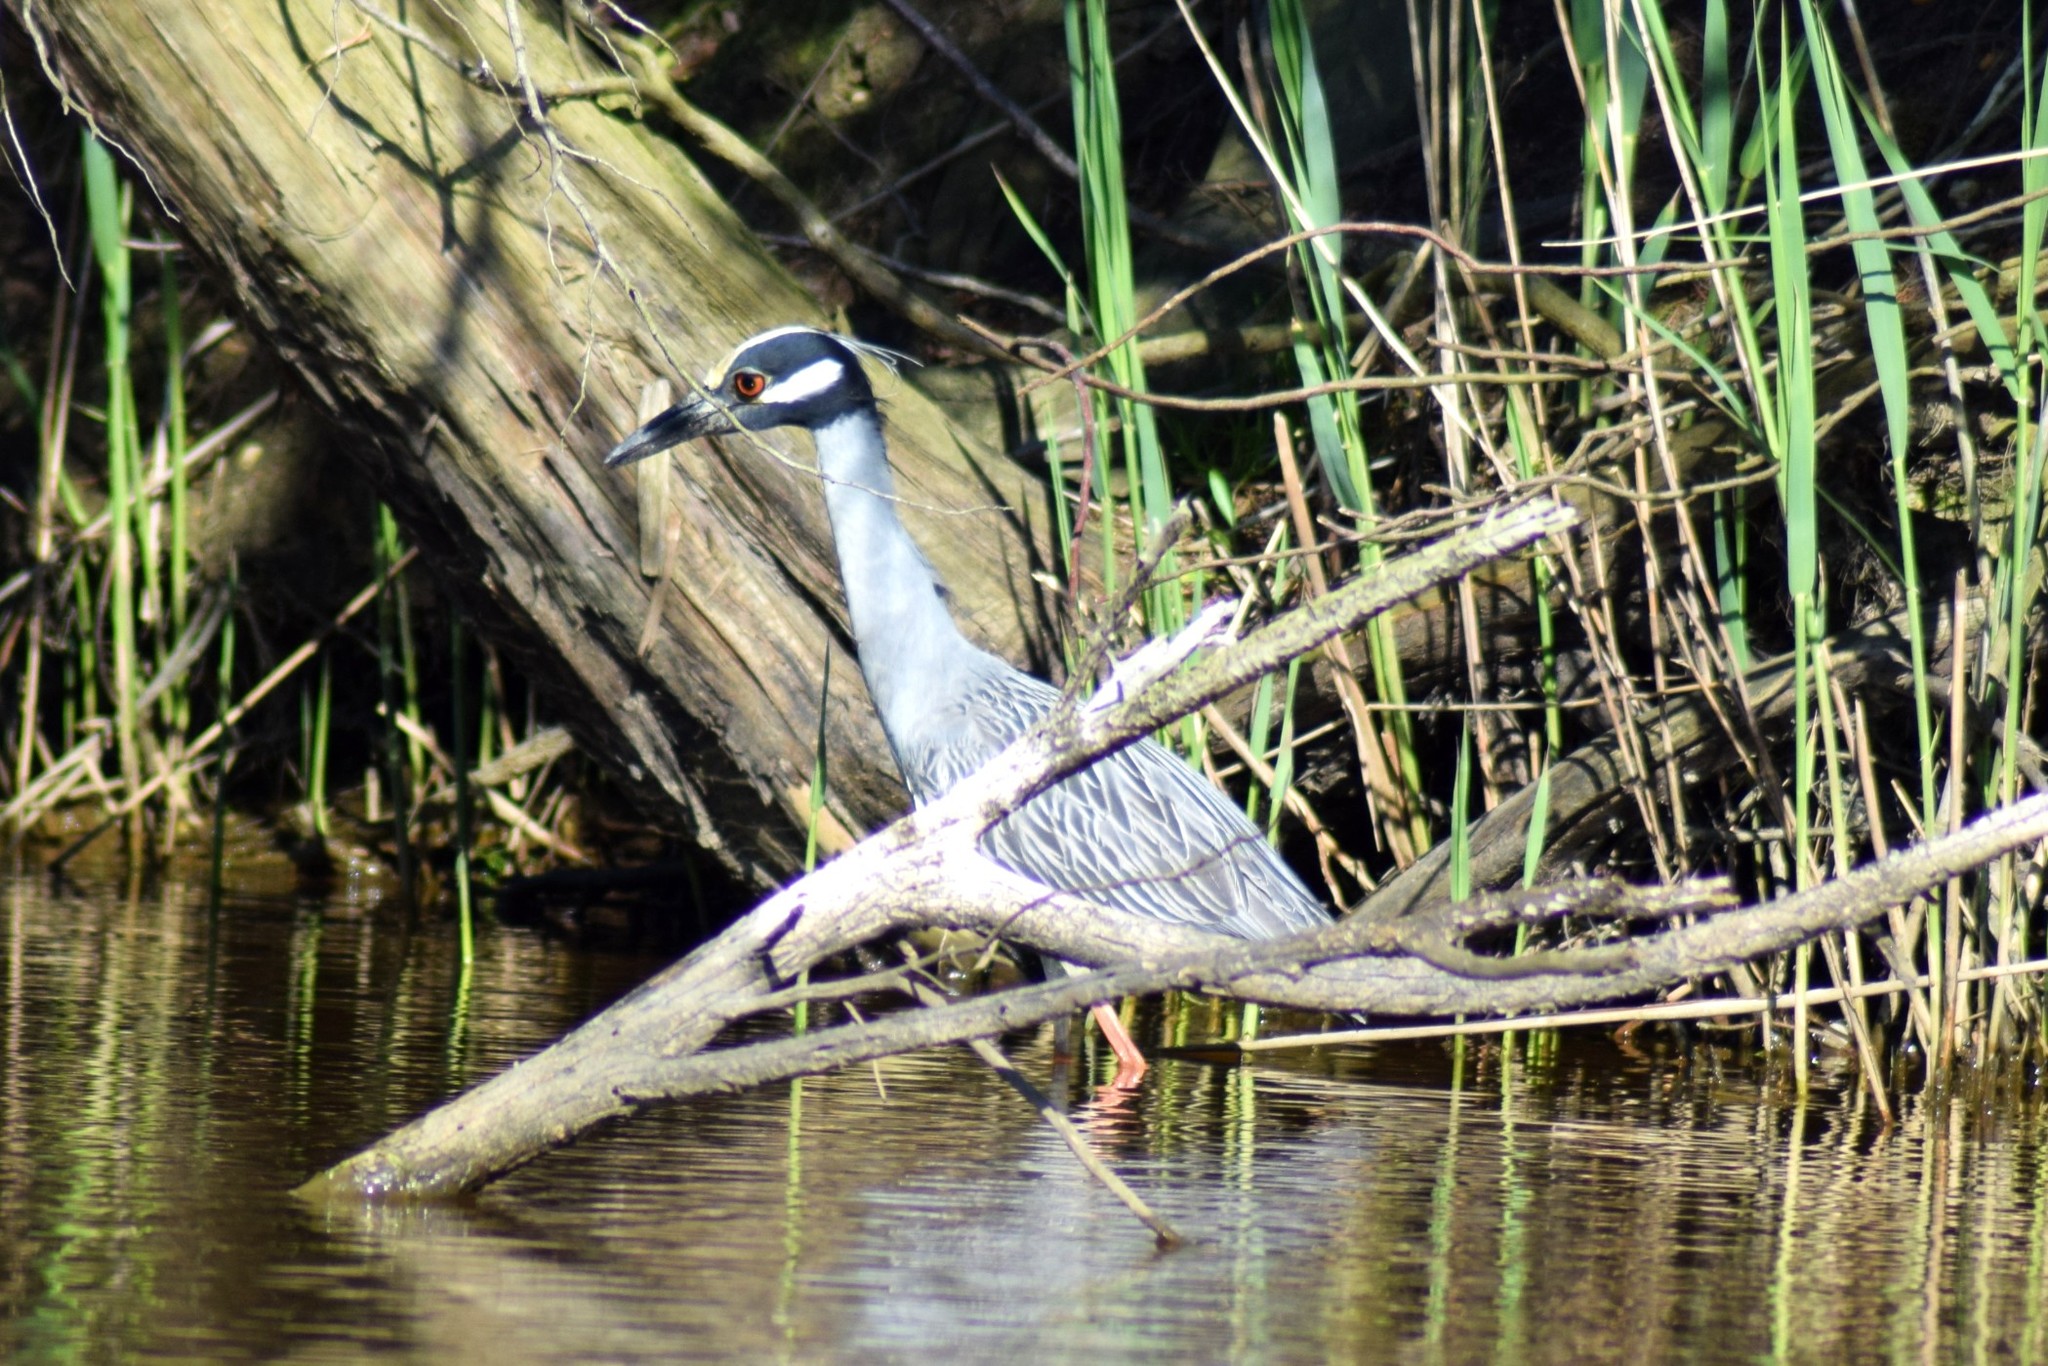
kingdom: Animalia
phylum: Chordata
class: Aves
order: Pelecaniformes
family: Ardeidae
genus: Nyctanassa
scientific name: Nyctanassa violacea
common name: Yellow-crowned night heron
